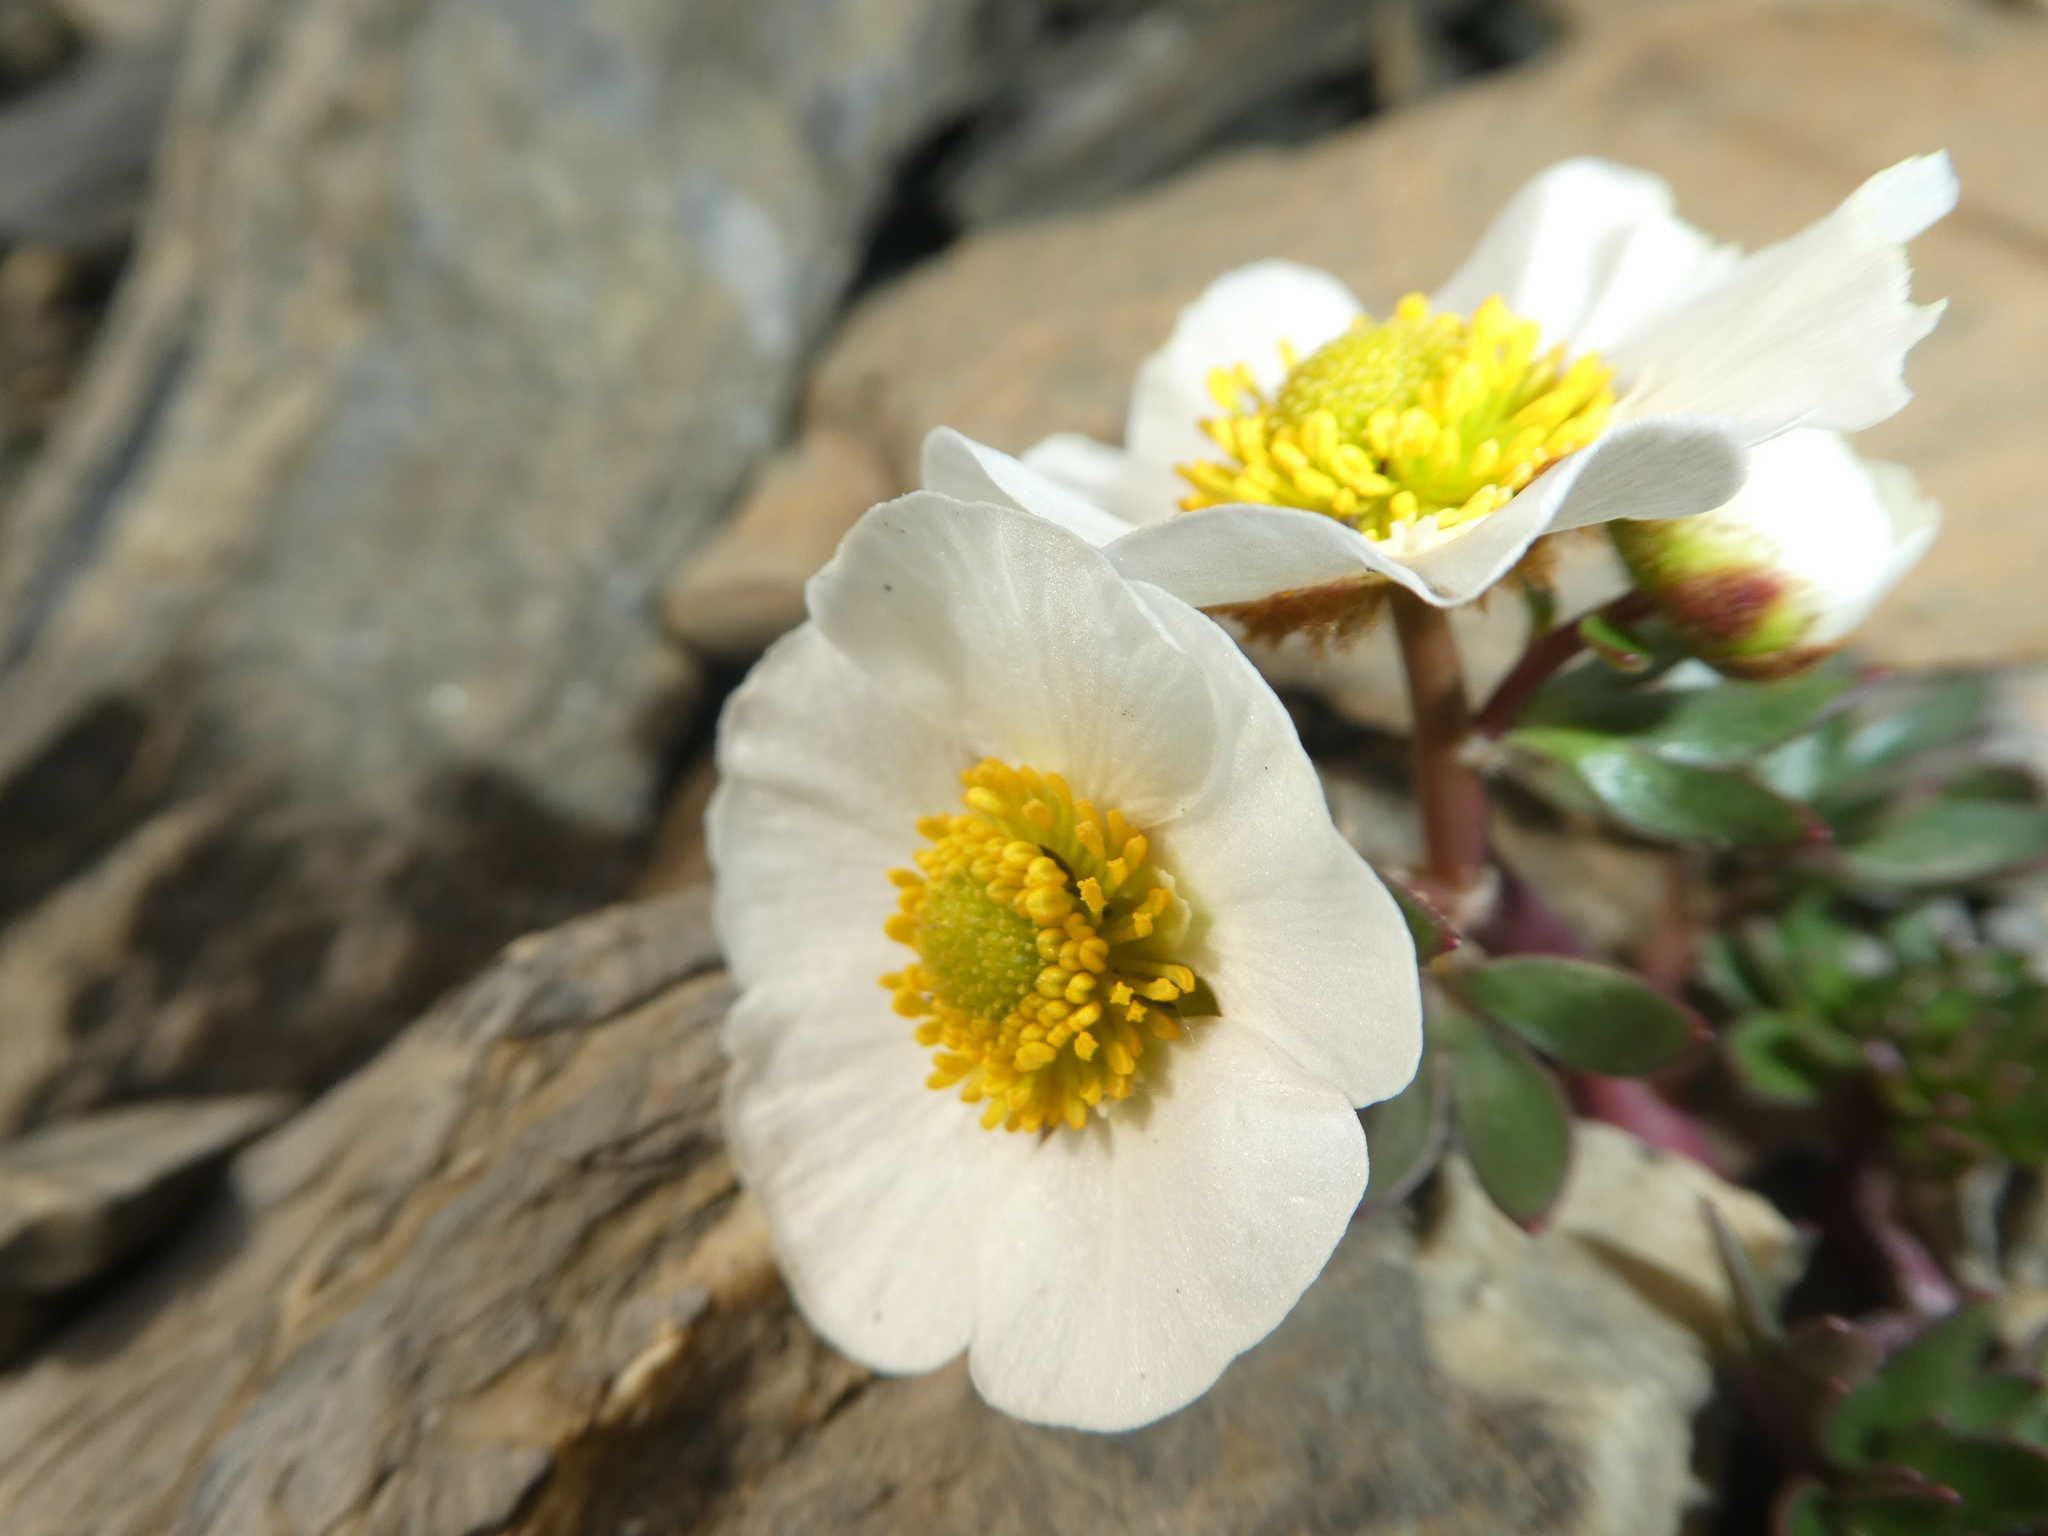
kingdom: Plantae
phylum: Tracheophyta
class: Magnoliopsida
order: Ranunculales
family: Ranunculaceae
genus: Ranunculus
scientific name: Ranunculus glacialis
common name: Glacier buttercup
